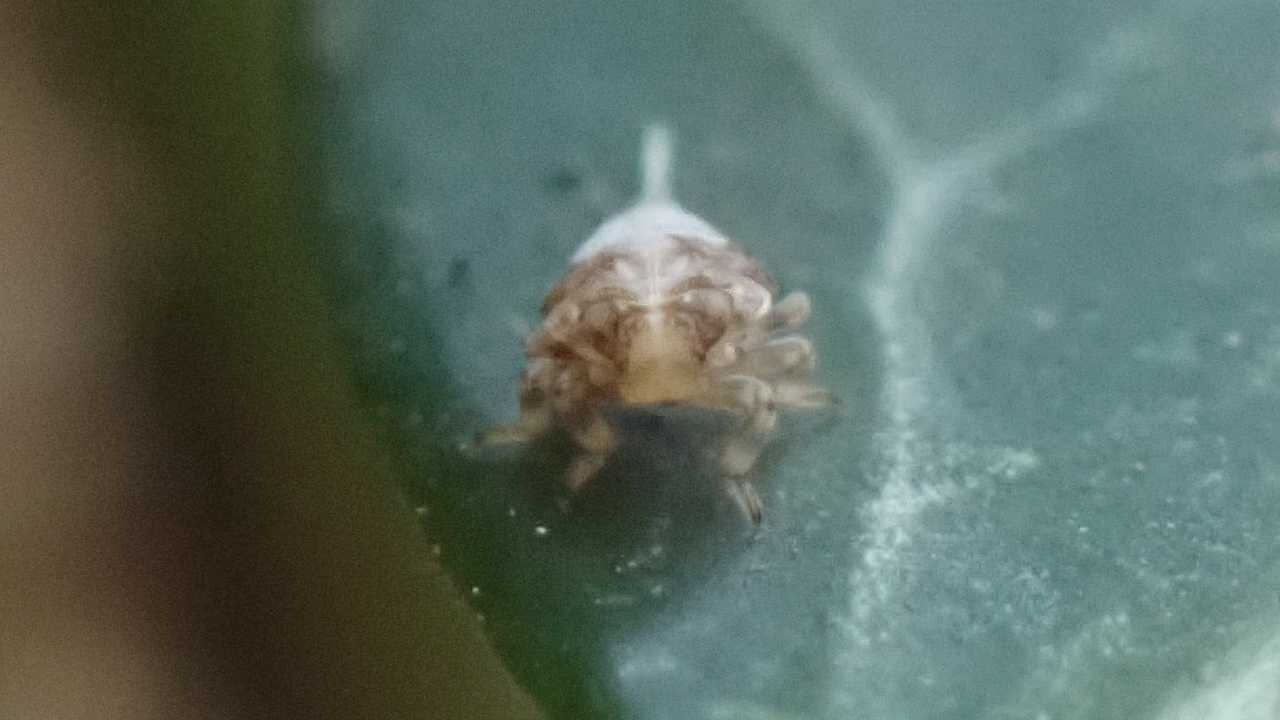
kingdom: Animalia
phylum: Arthropoda
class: Insecta
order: Hemiptera
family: Issidae
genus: Issus
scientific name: Issus
